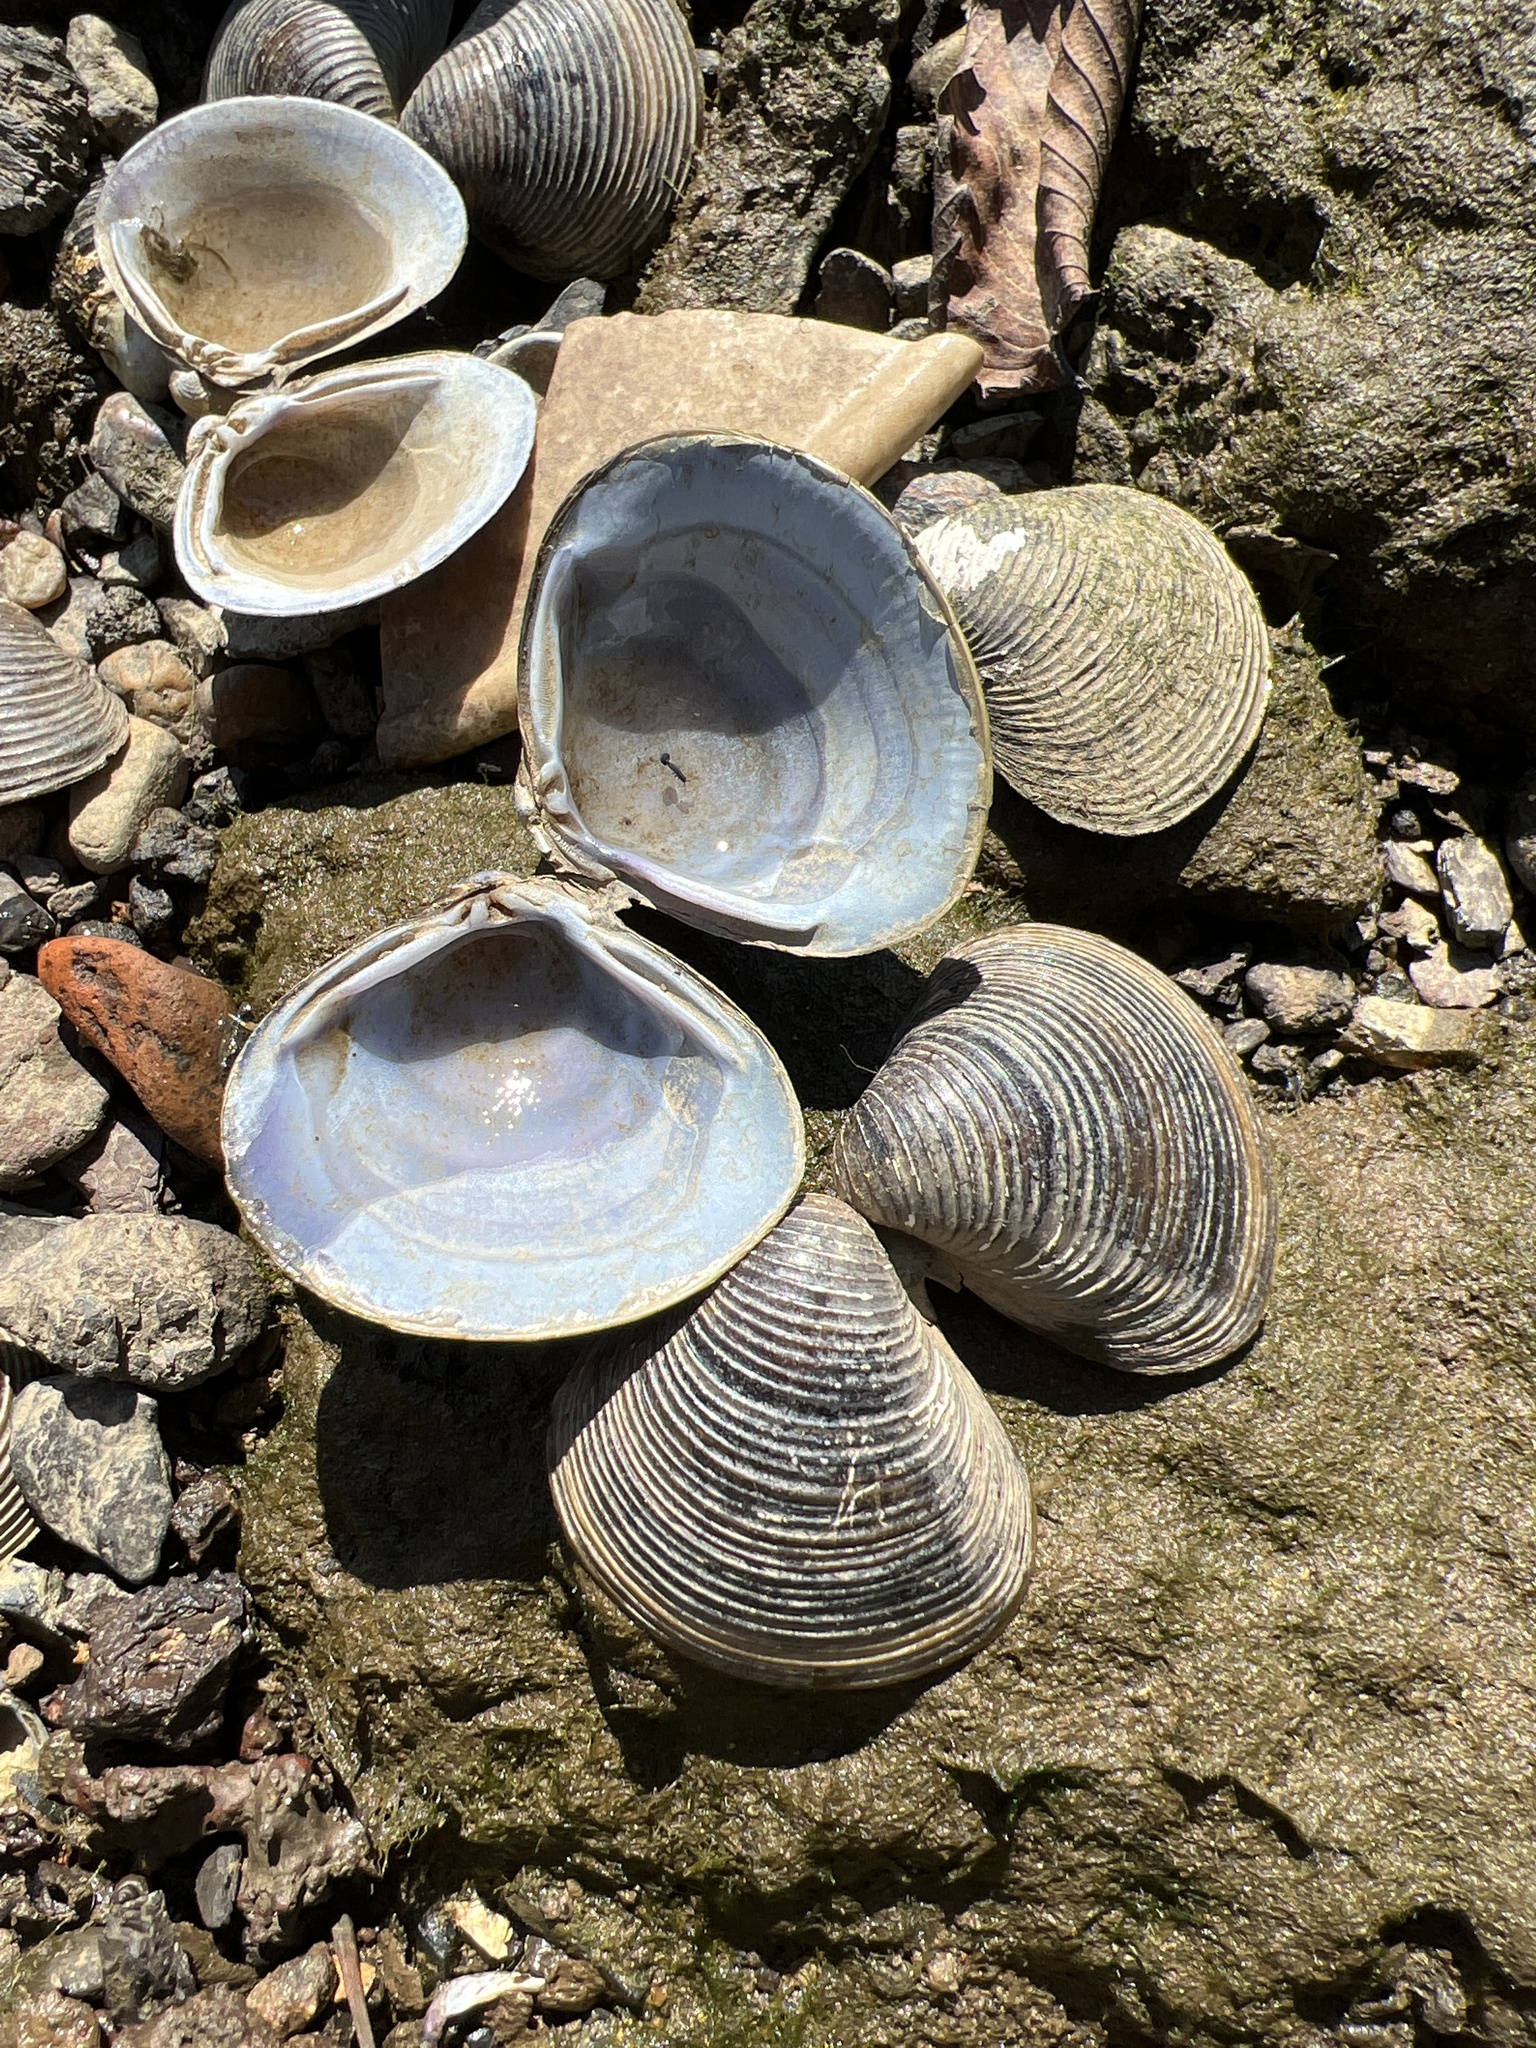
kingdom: Animalia
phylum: Mollusca
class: Bivalvia
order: Venerida
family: Cyrenidae
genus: Corbicula
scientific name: Corbicula fluminea
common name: Asian clam
